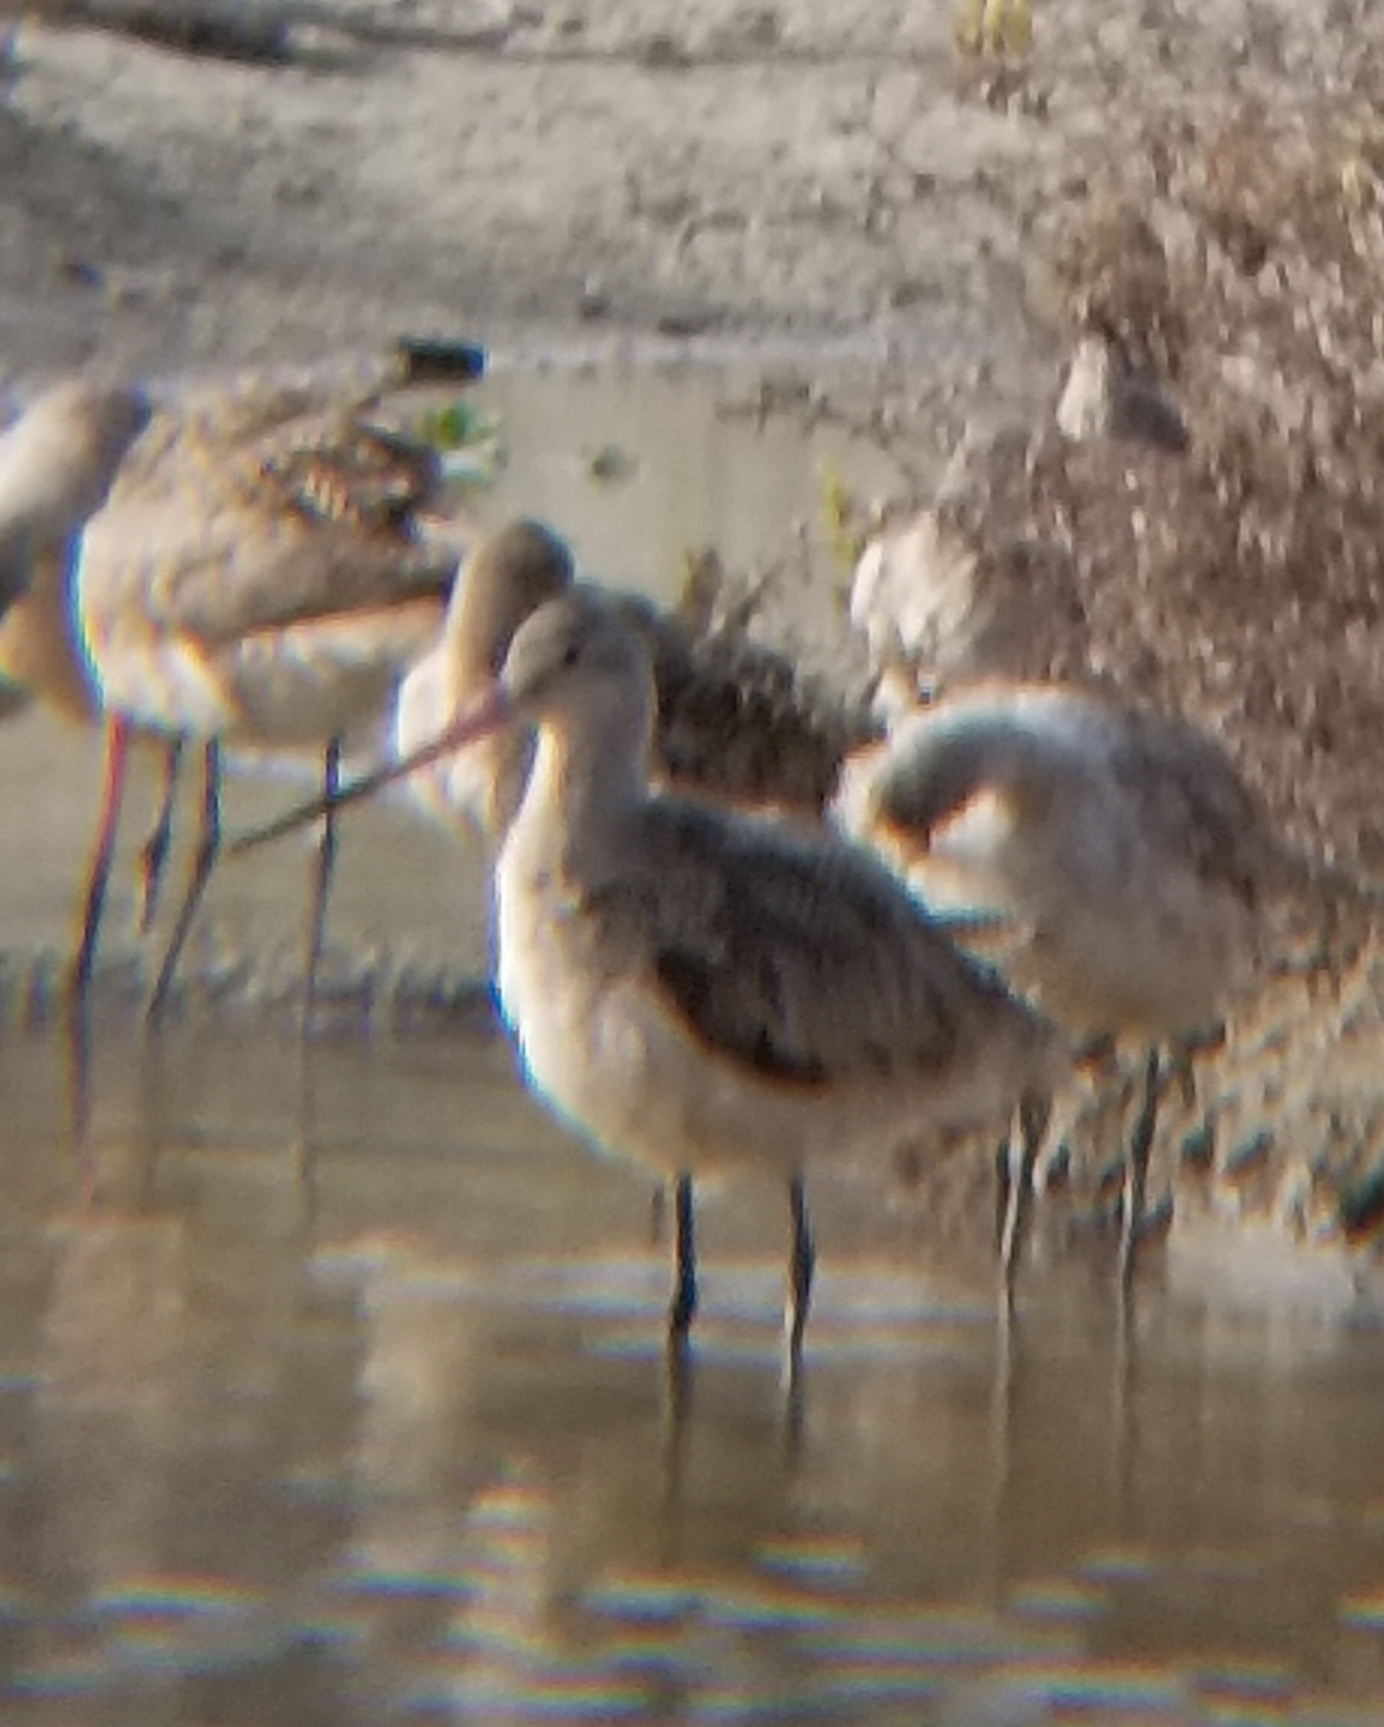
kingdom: Animalia
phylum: Chordata
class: Aves
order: Charadriiformes
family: Scolopacidae
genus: Limosa
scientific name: Limosa fedoa
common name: Marbled godwit
